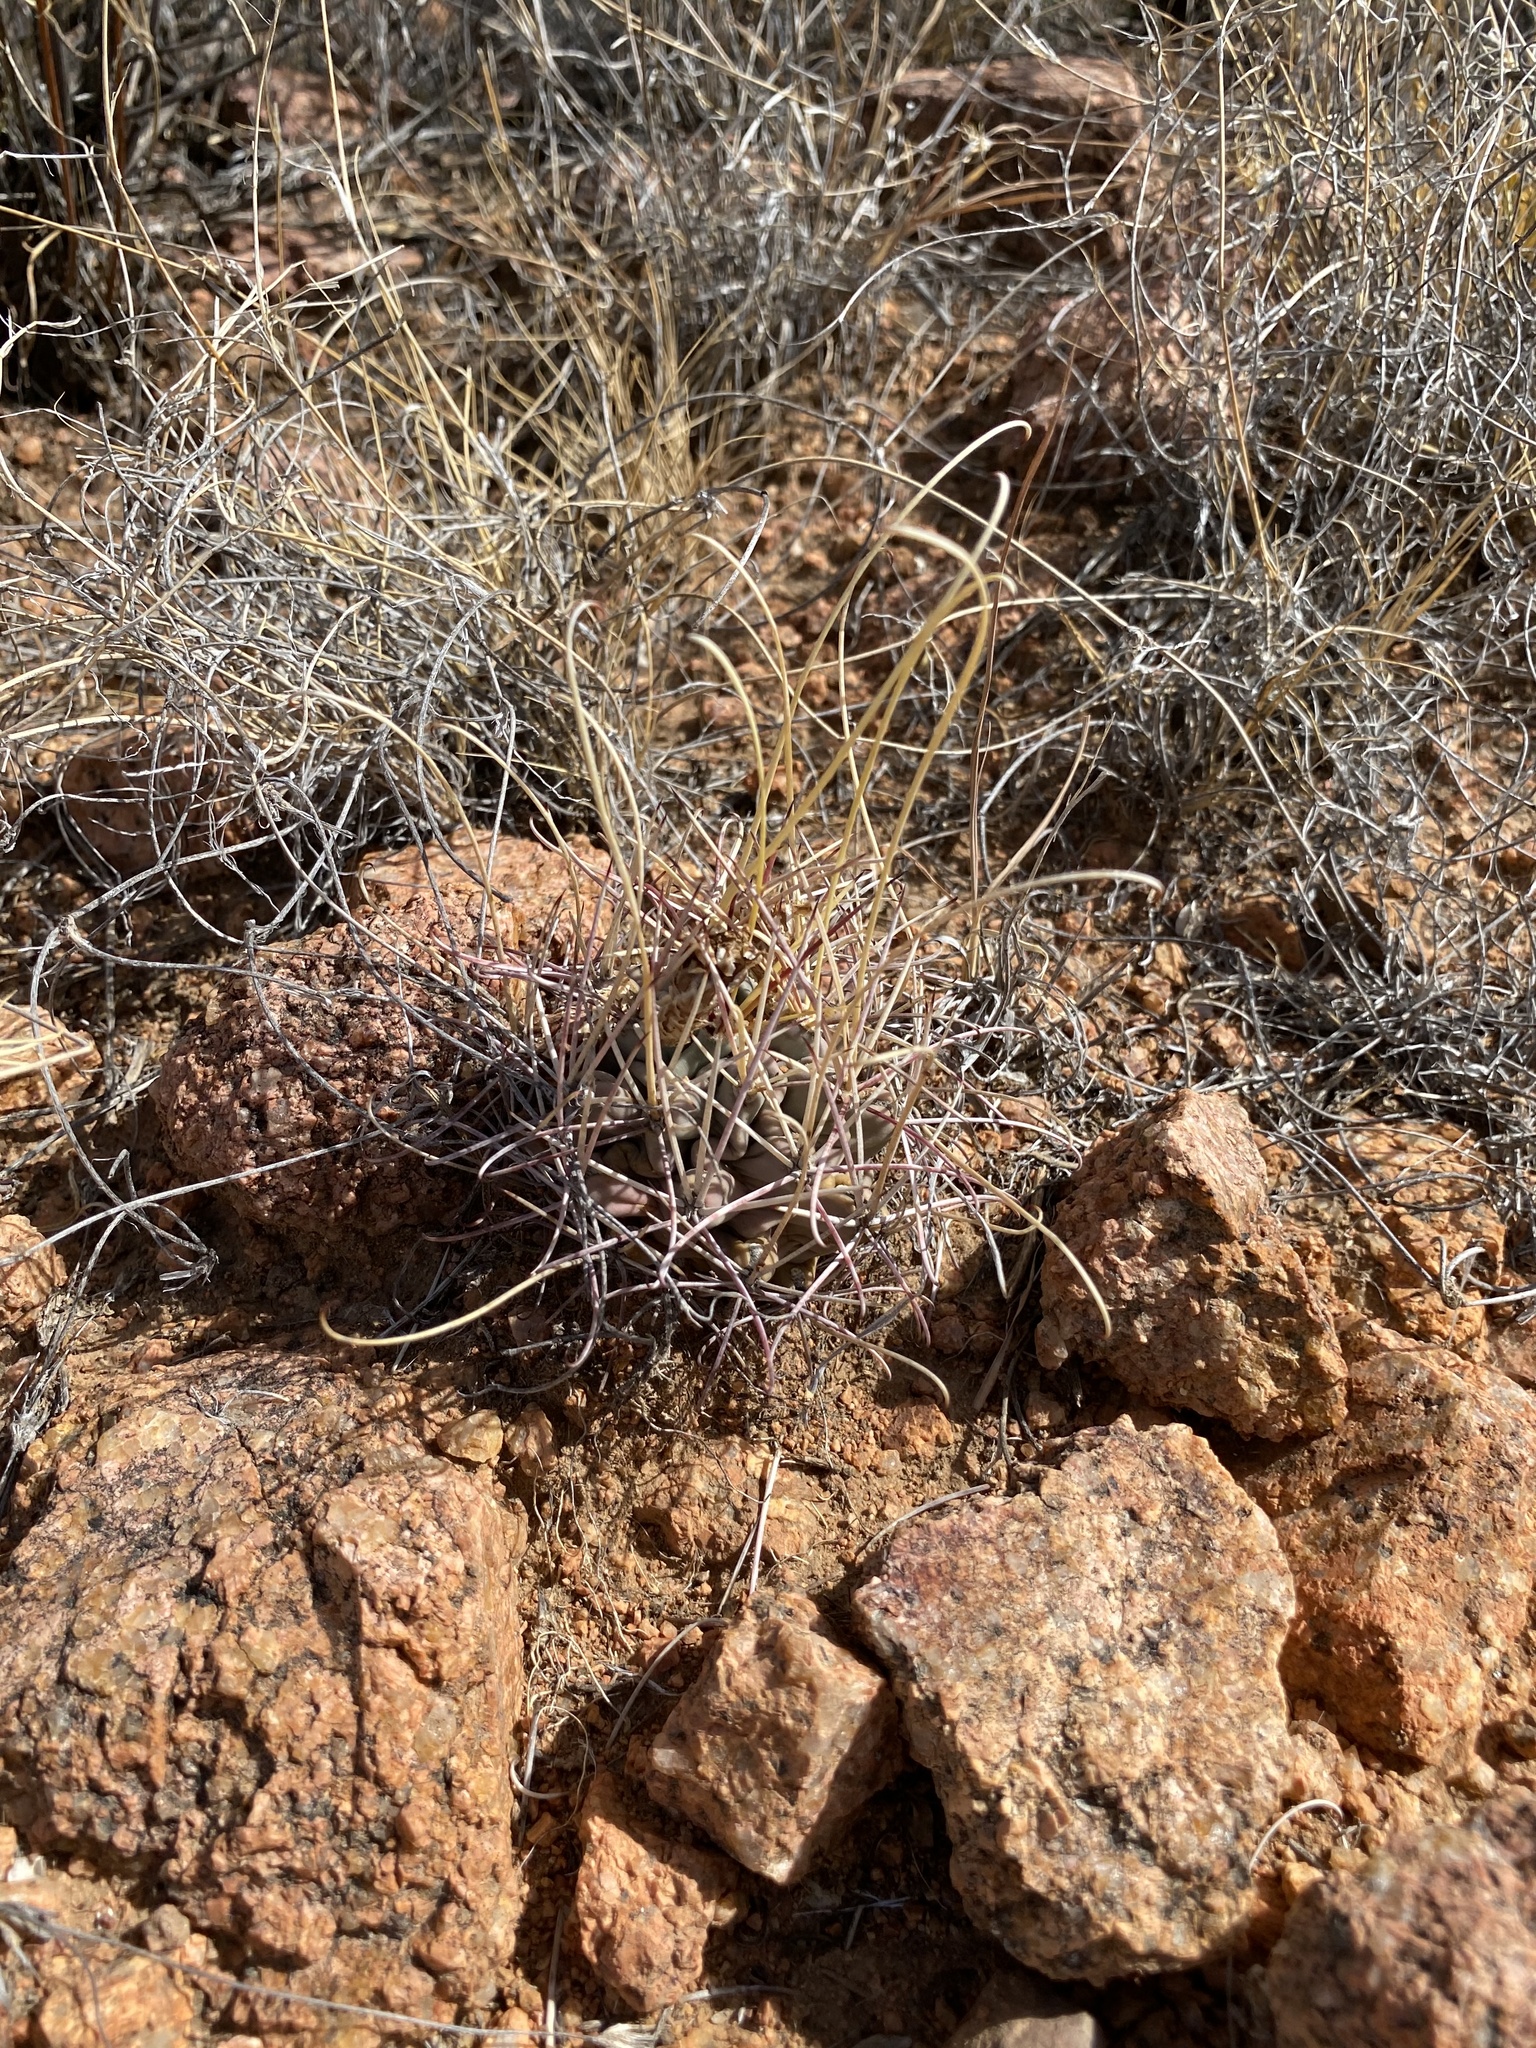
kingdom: Plantae
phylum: Tracheophyta
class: Magnoliopsida
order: Caryophyllales
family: Cactaceae
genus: Ferocactus
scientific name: Ferocactus uncinatus
